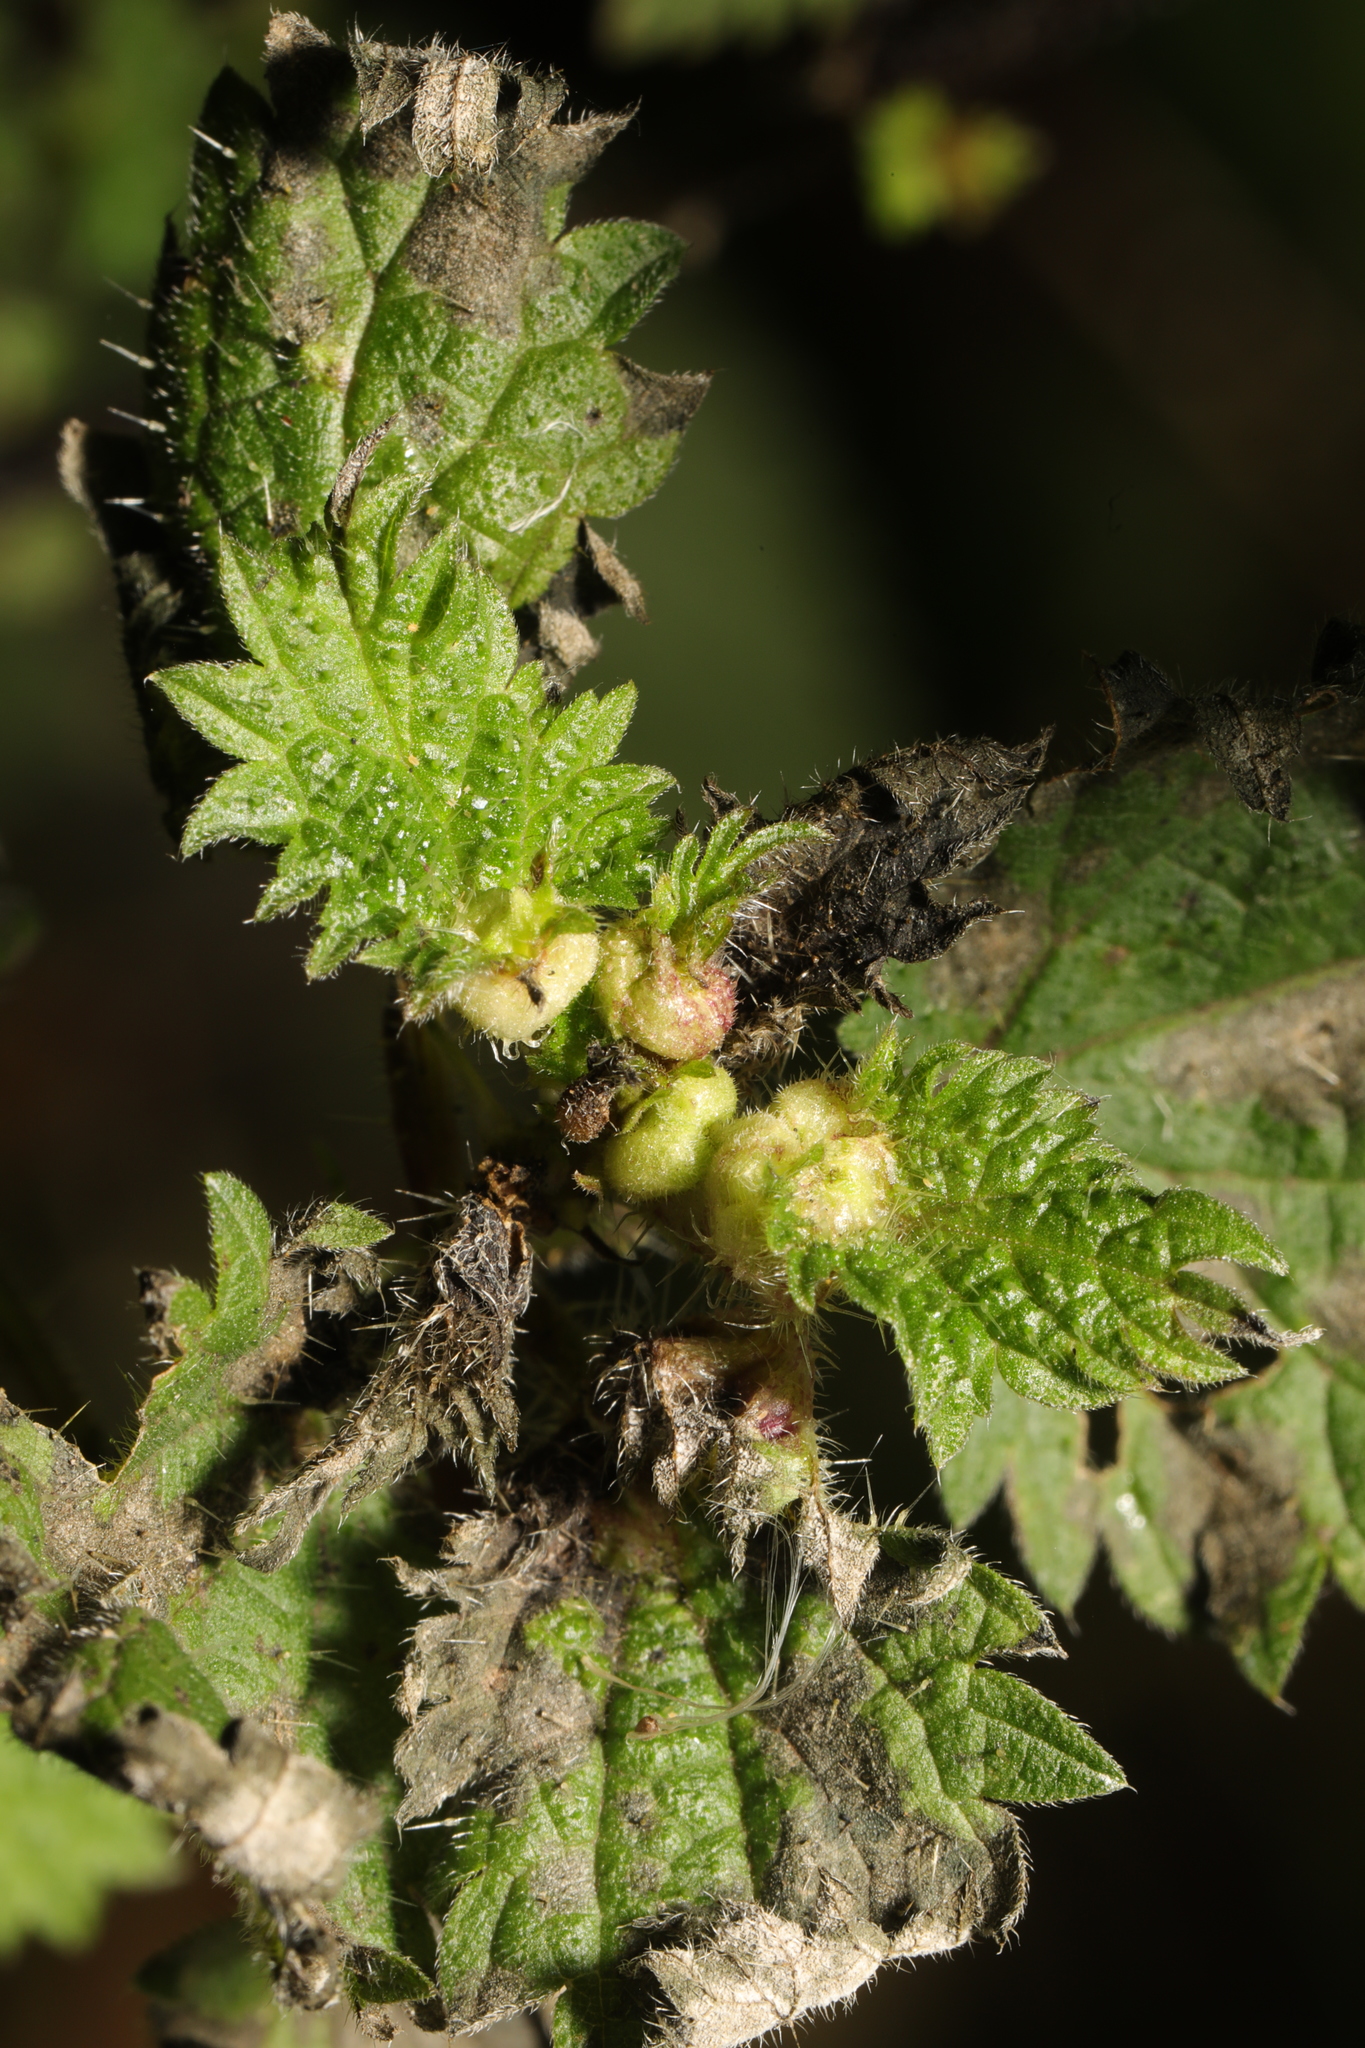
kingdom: Animalia
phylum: Arthropoda
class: Insecta
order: Diptera
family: Cecidomyiidae
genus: Dasineura
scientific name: Dasineura urticae
